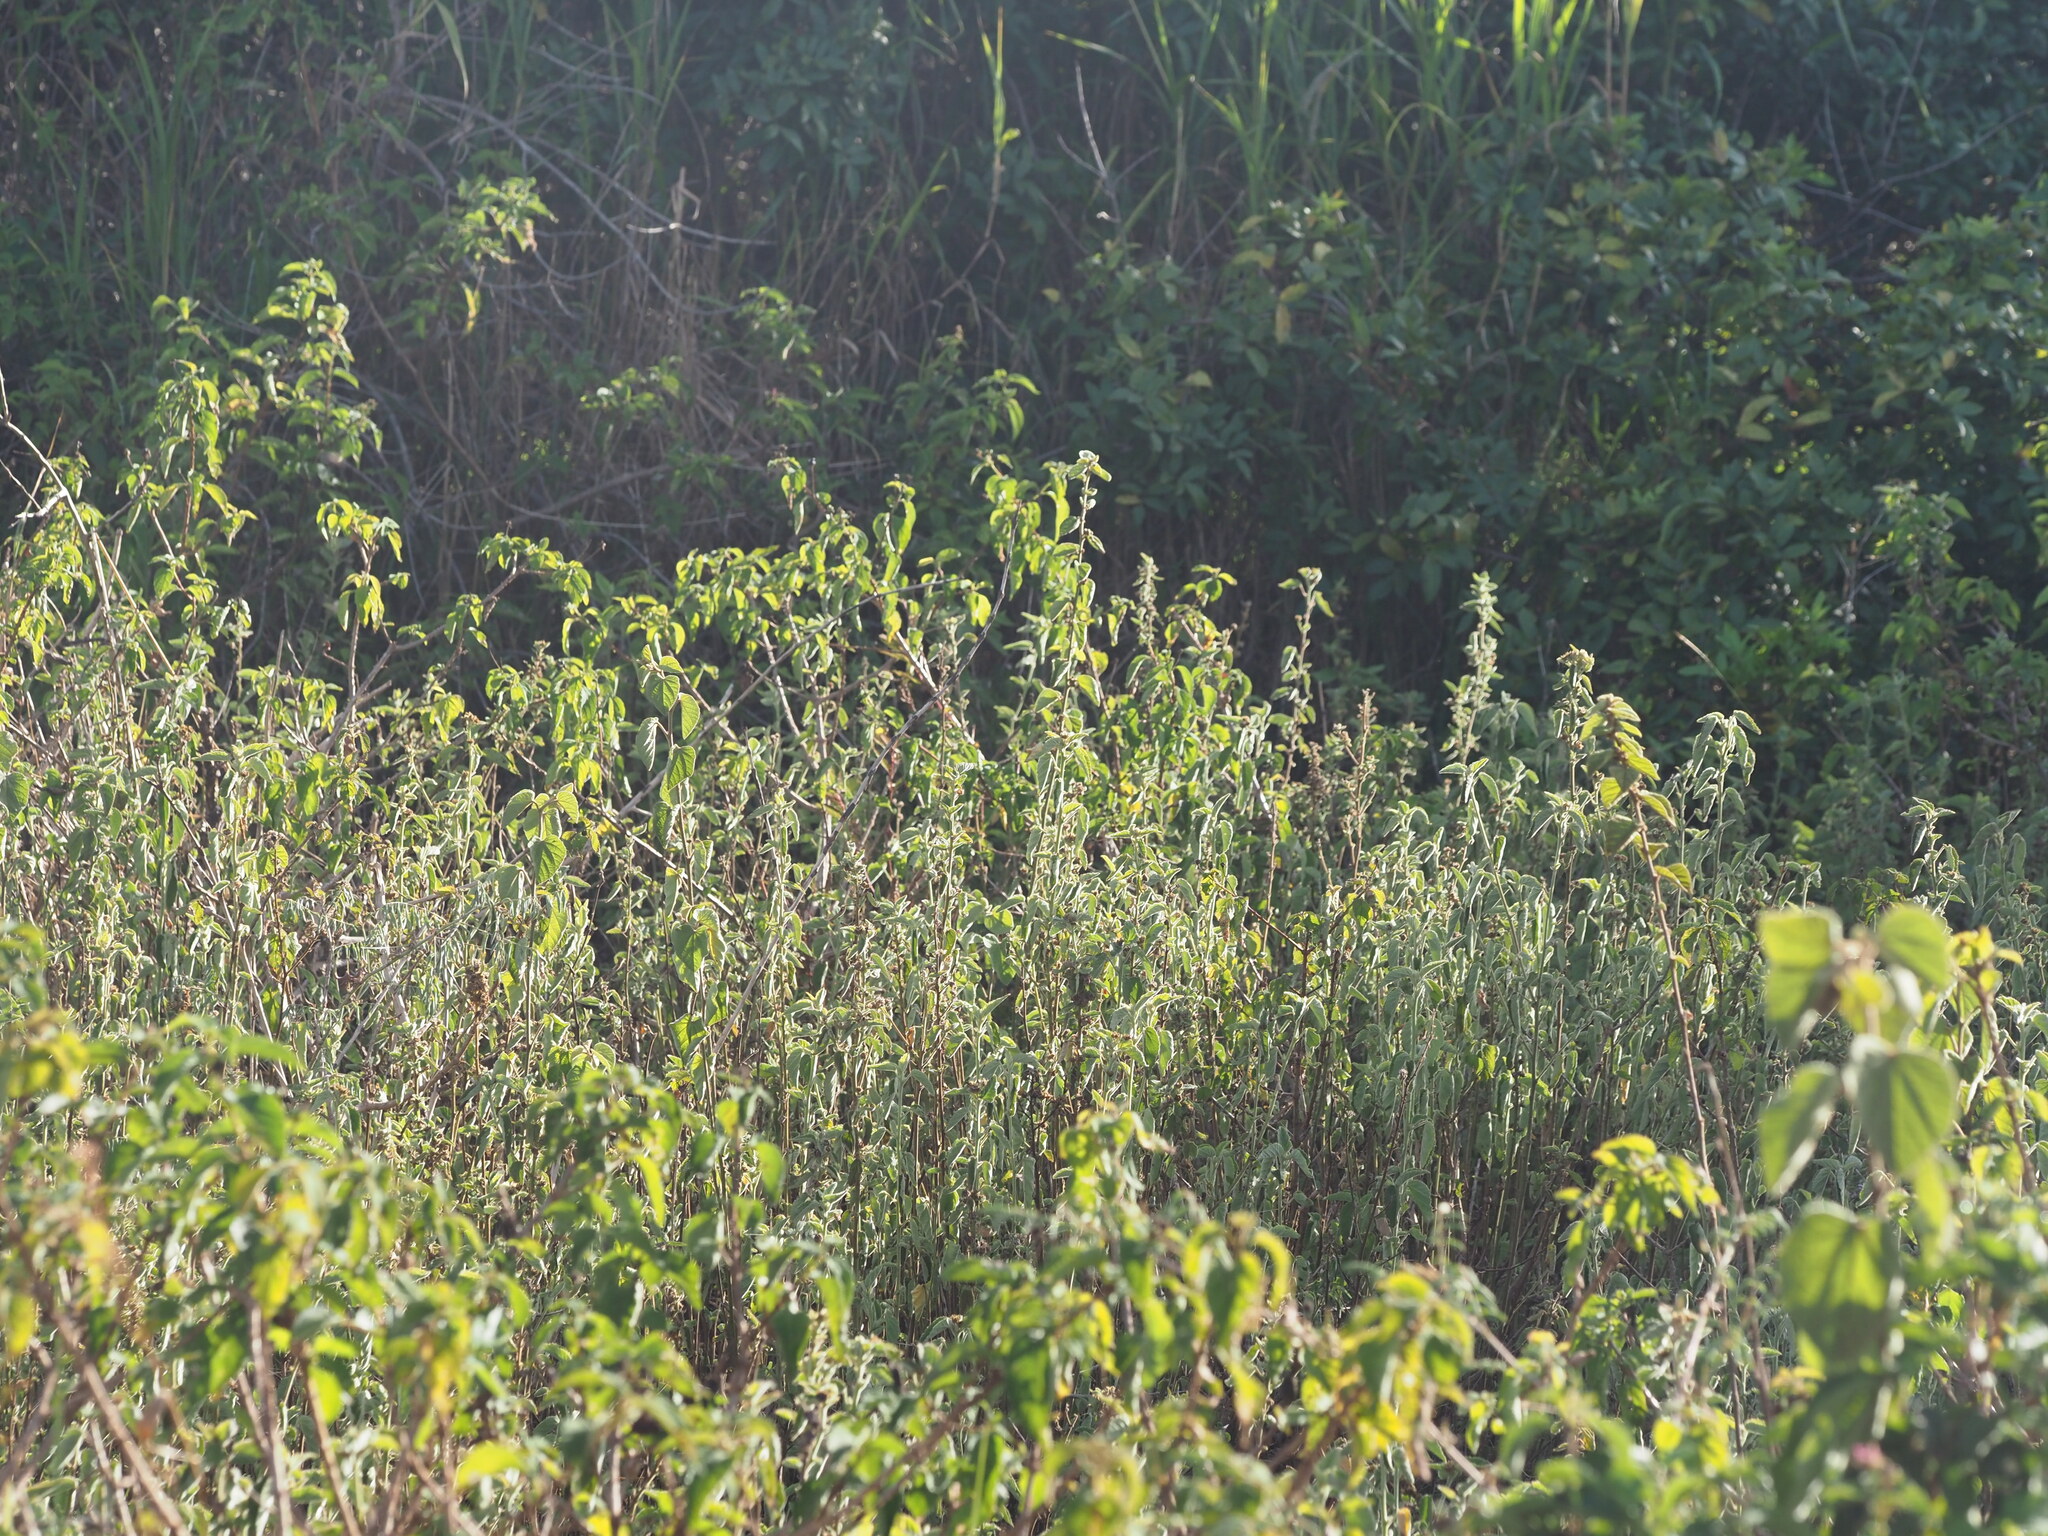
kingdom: Plantae
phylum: Tracheophyta
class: Magnoliopsida
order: Malvales
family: Malvaceae
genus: Sida
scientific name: Sida cordifolia
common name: Ilima
